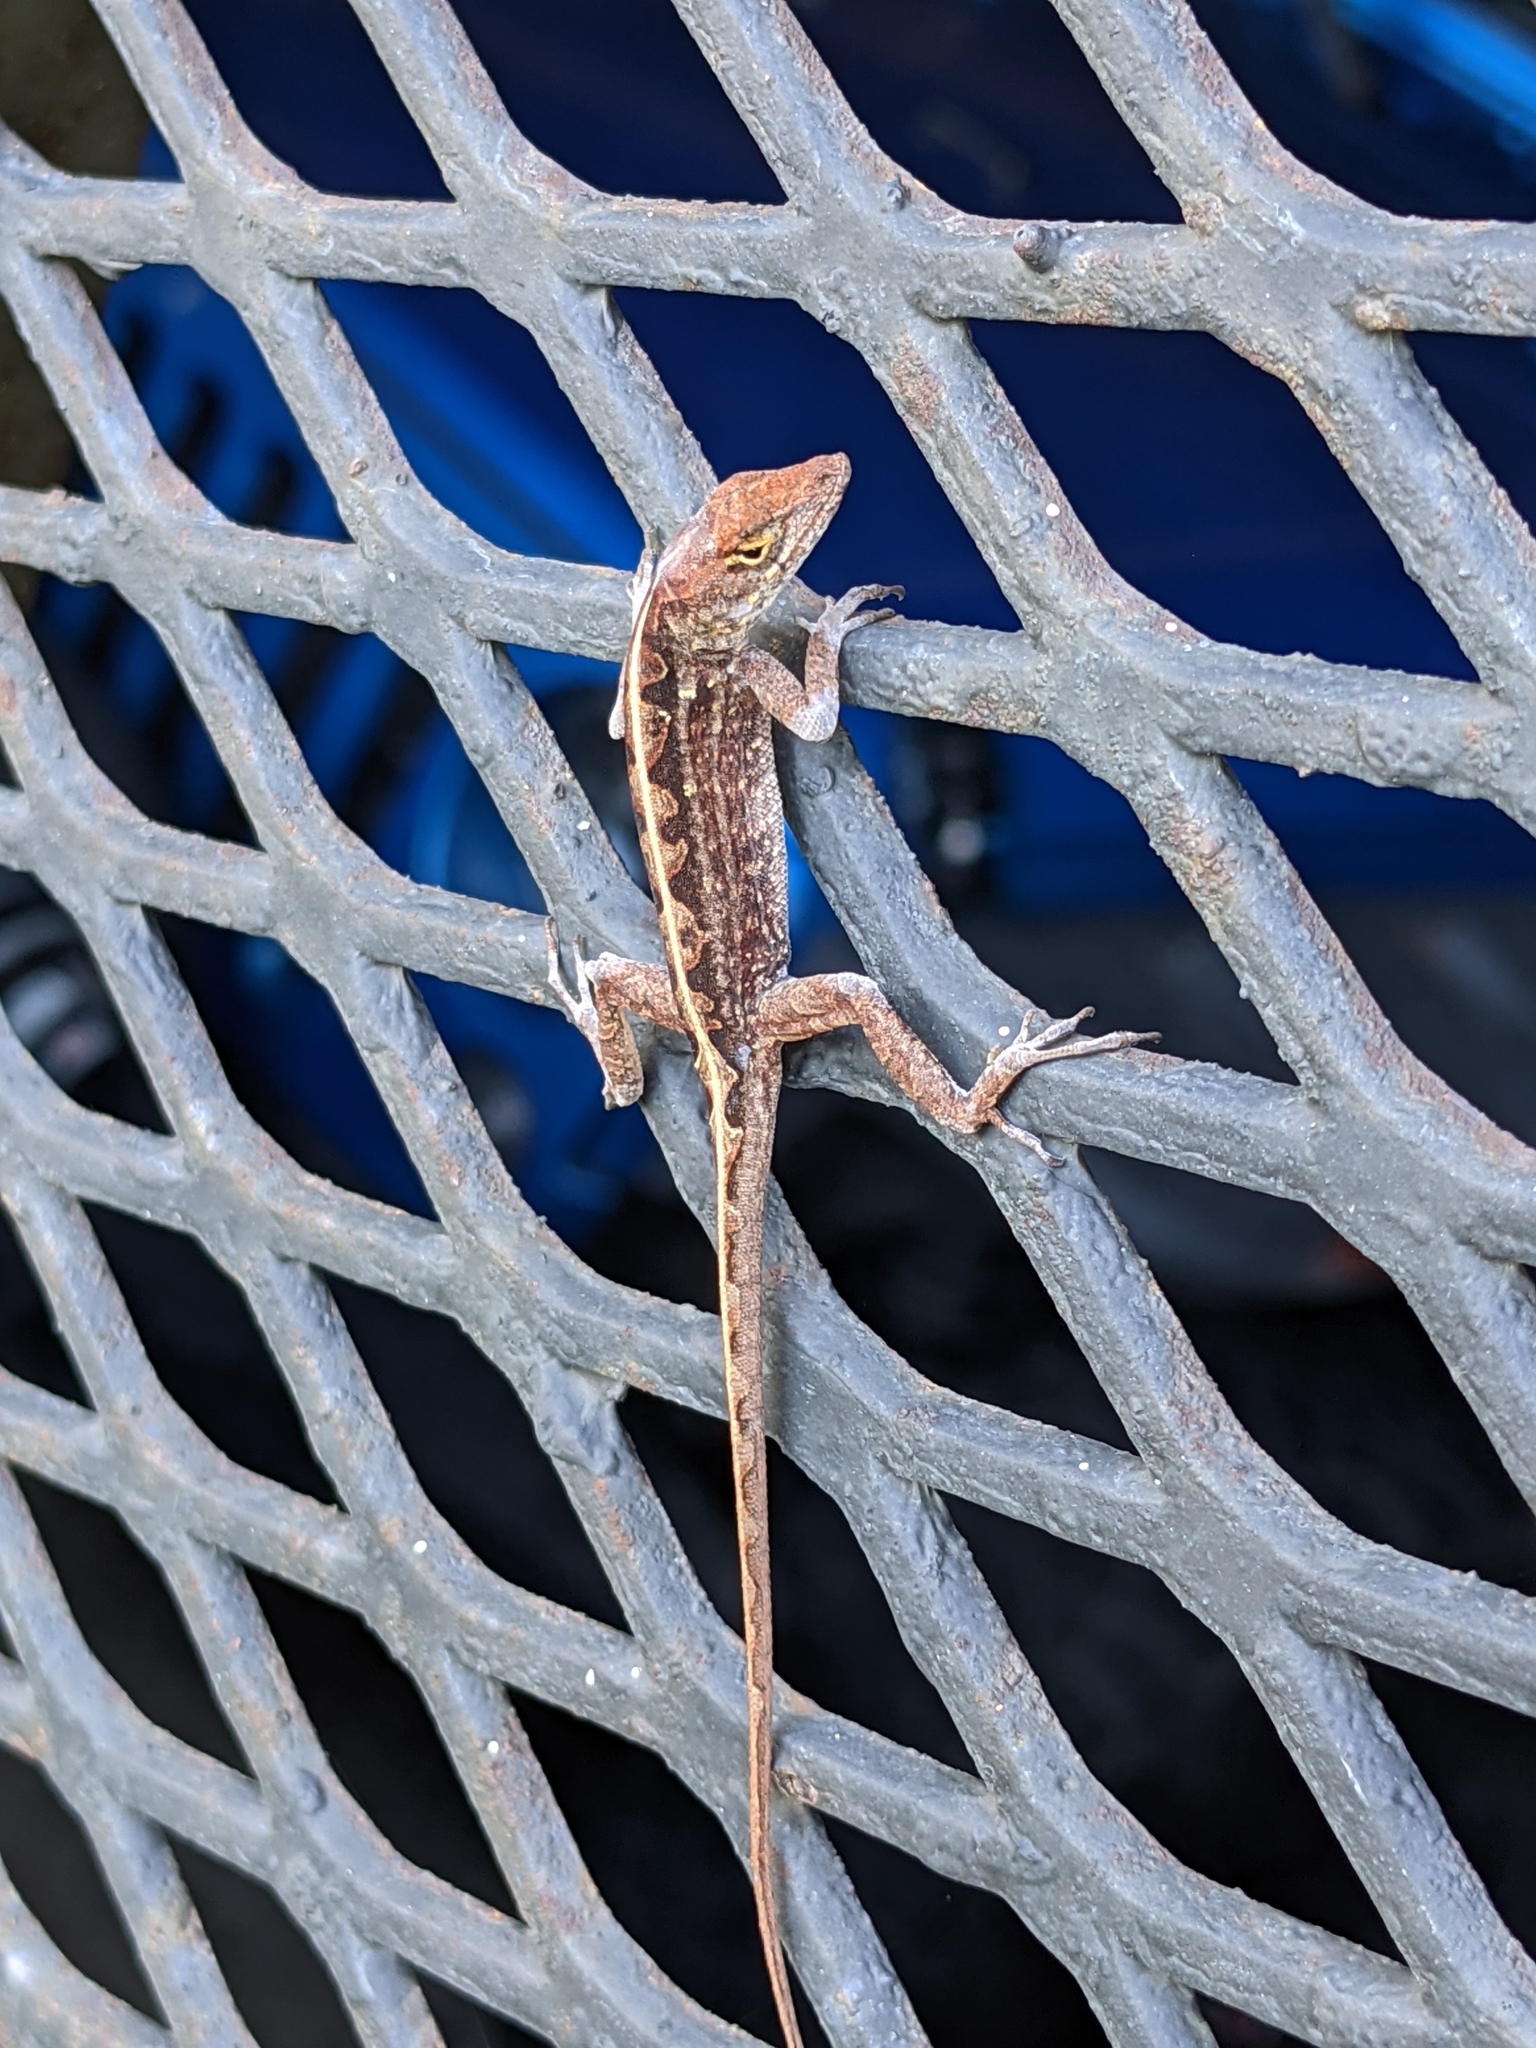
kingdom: Animalia
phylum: Chordata
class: Squamata
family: Dactyloidae
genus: Anolis
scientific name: Anolis sagrei
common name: Brown anole
